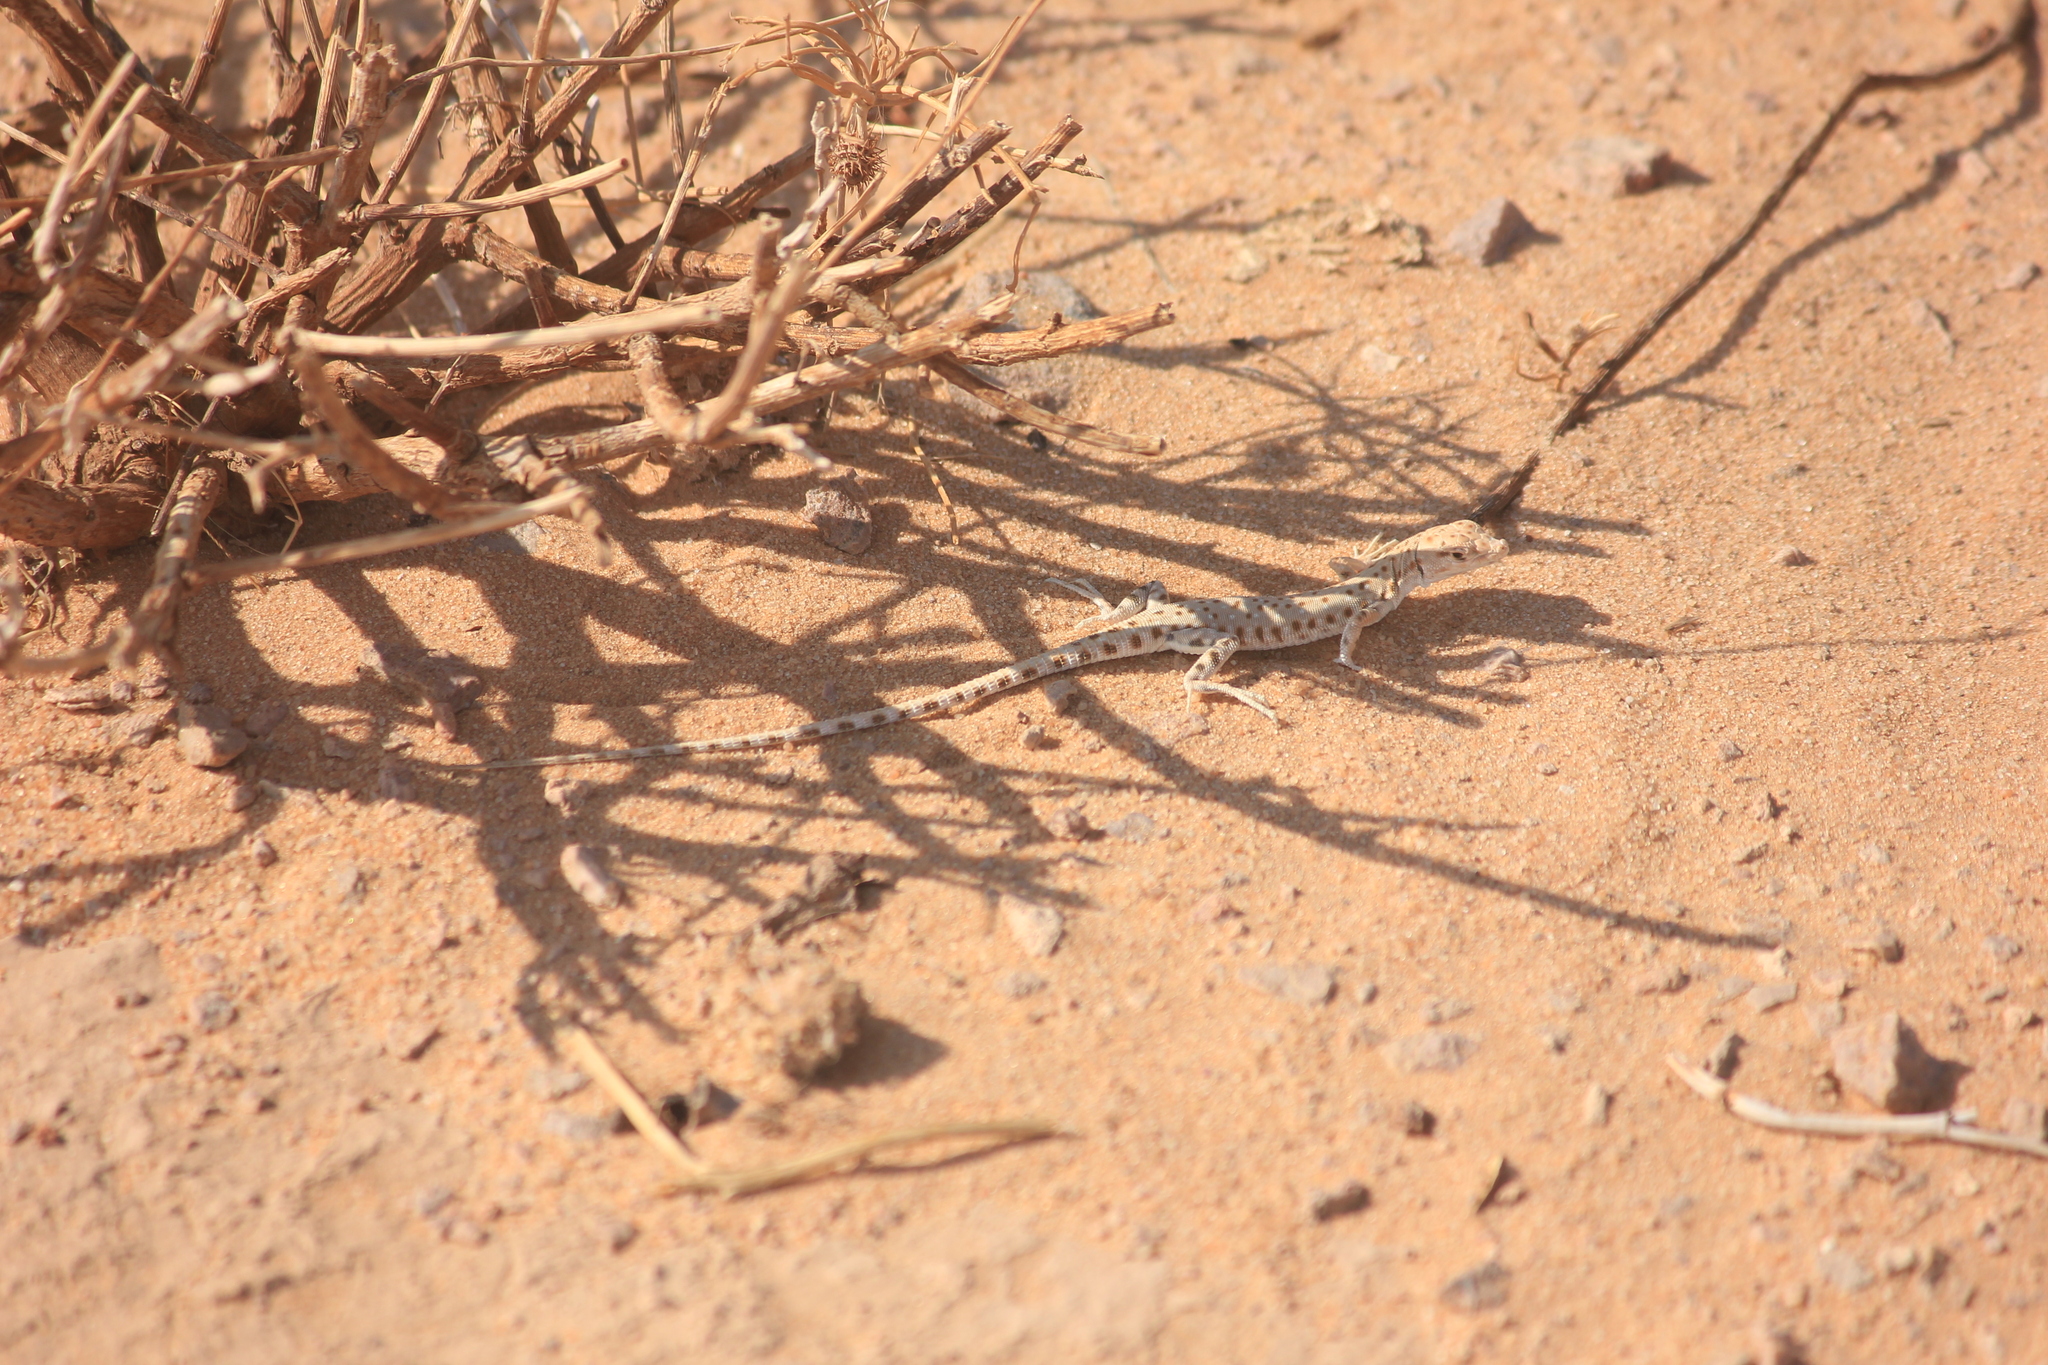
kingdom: Animalia
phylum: Chordata
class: Squamata
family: Lacertidae
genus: Mesalina
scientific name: Mesalina brevirostris
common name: Blanford's short-nosed desert lizard
